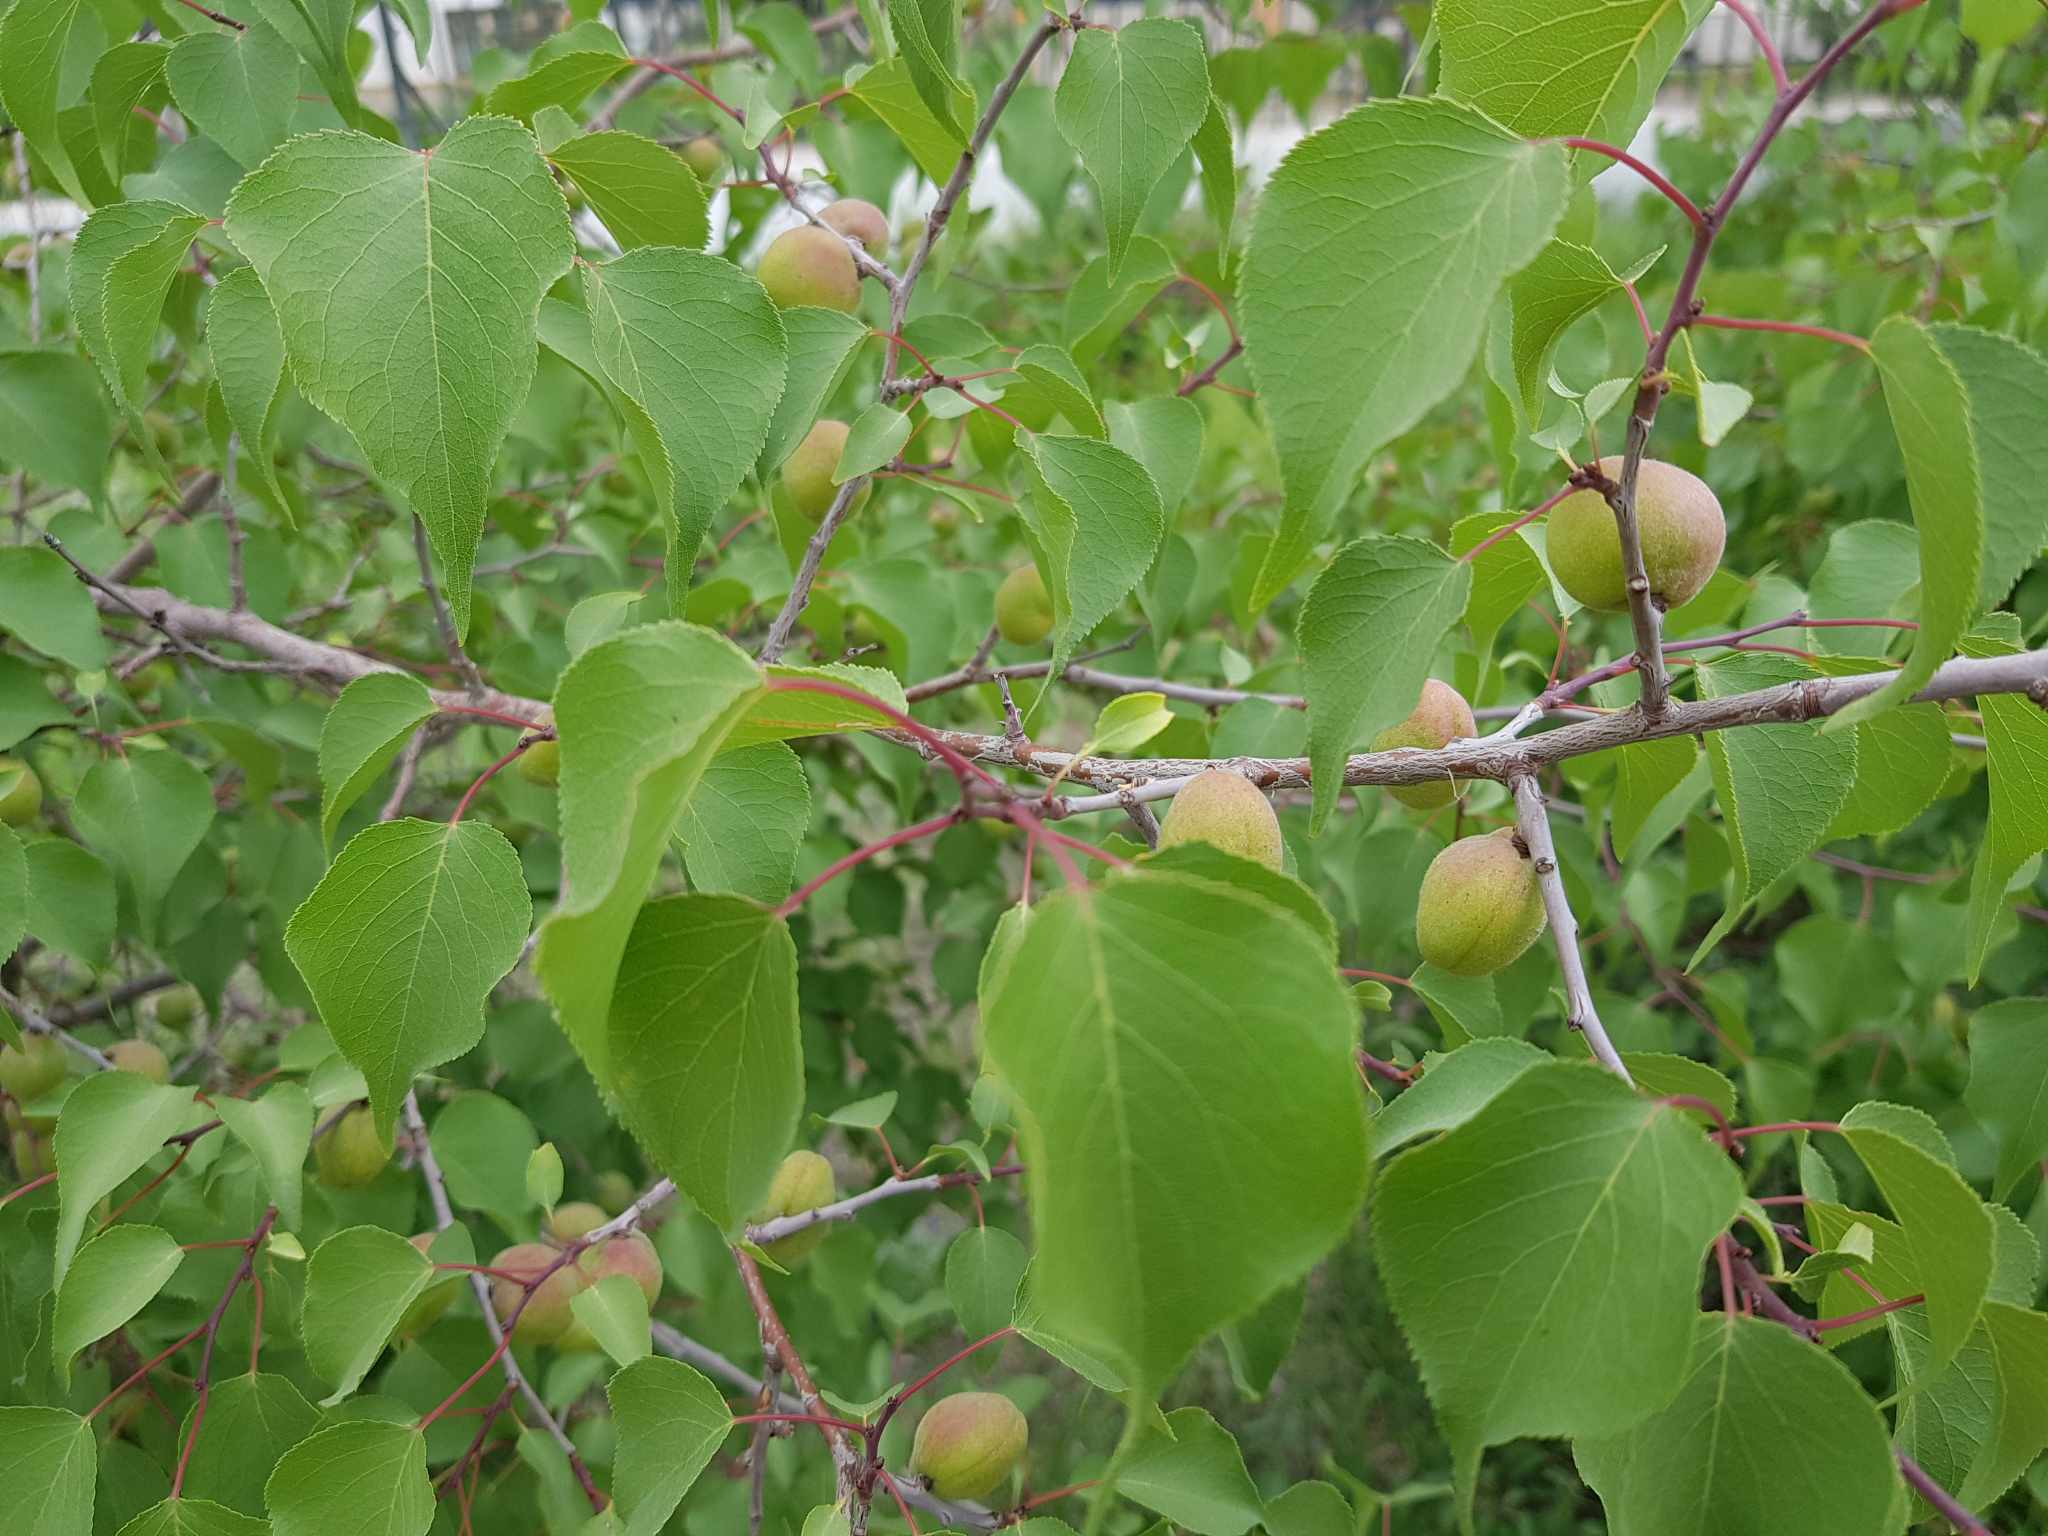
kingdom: Plantae
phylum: Tracheophyta
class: Magnoliopsida
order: Rosales
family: Rosaceae
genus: Prunus
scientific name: Prunus sibirica
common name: Siberian apricot
